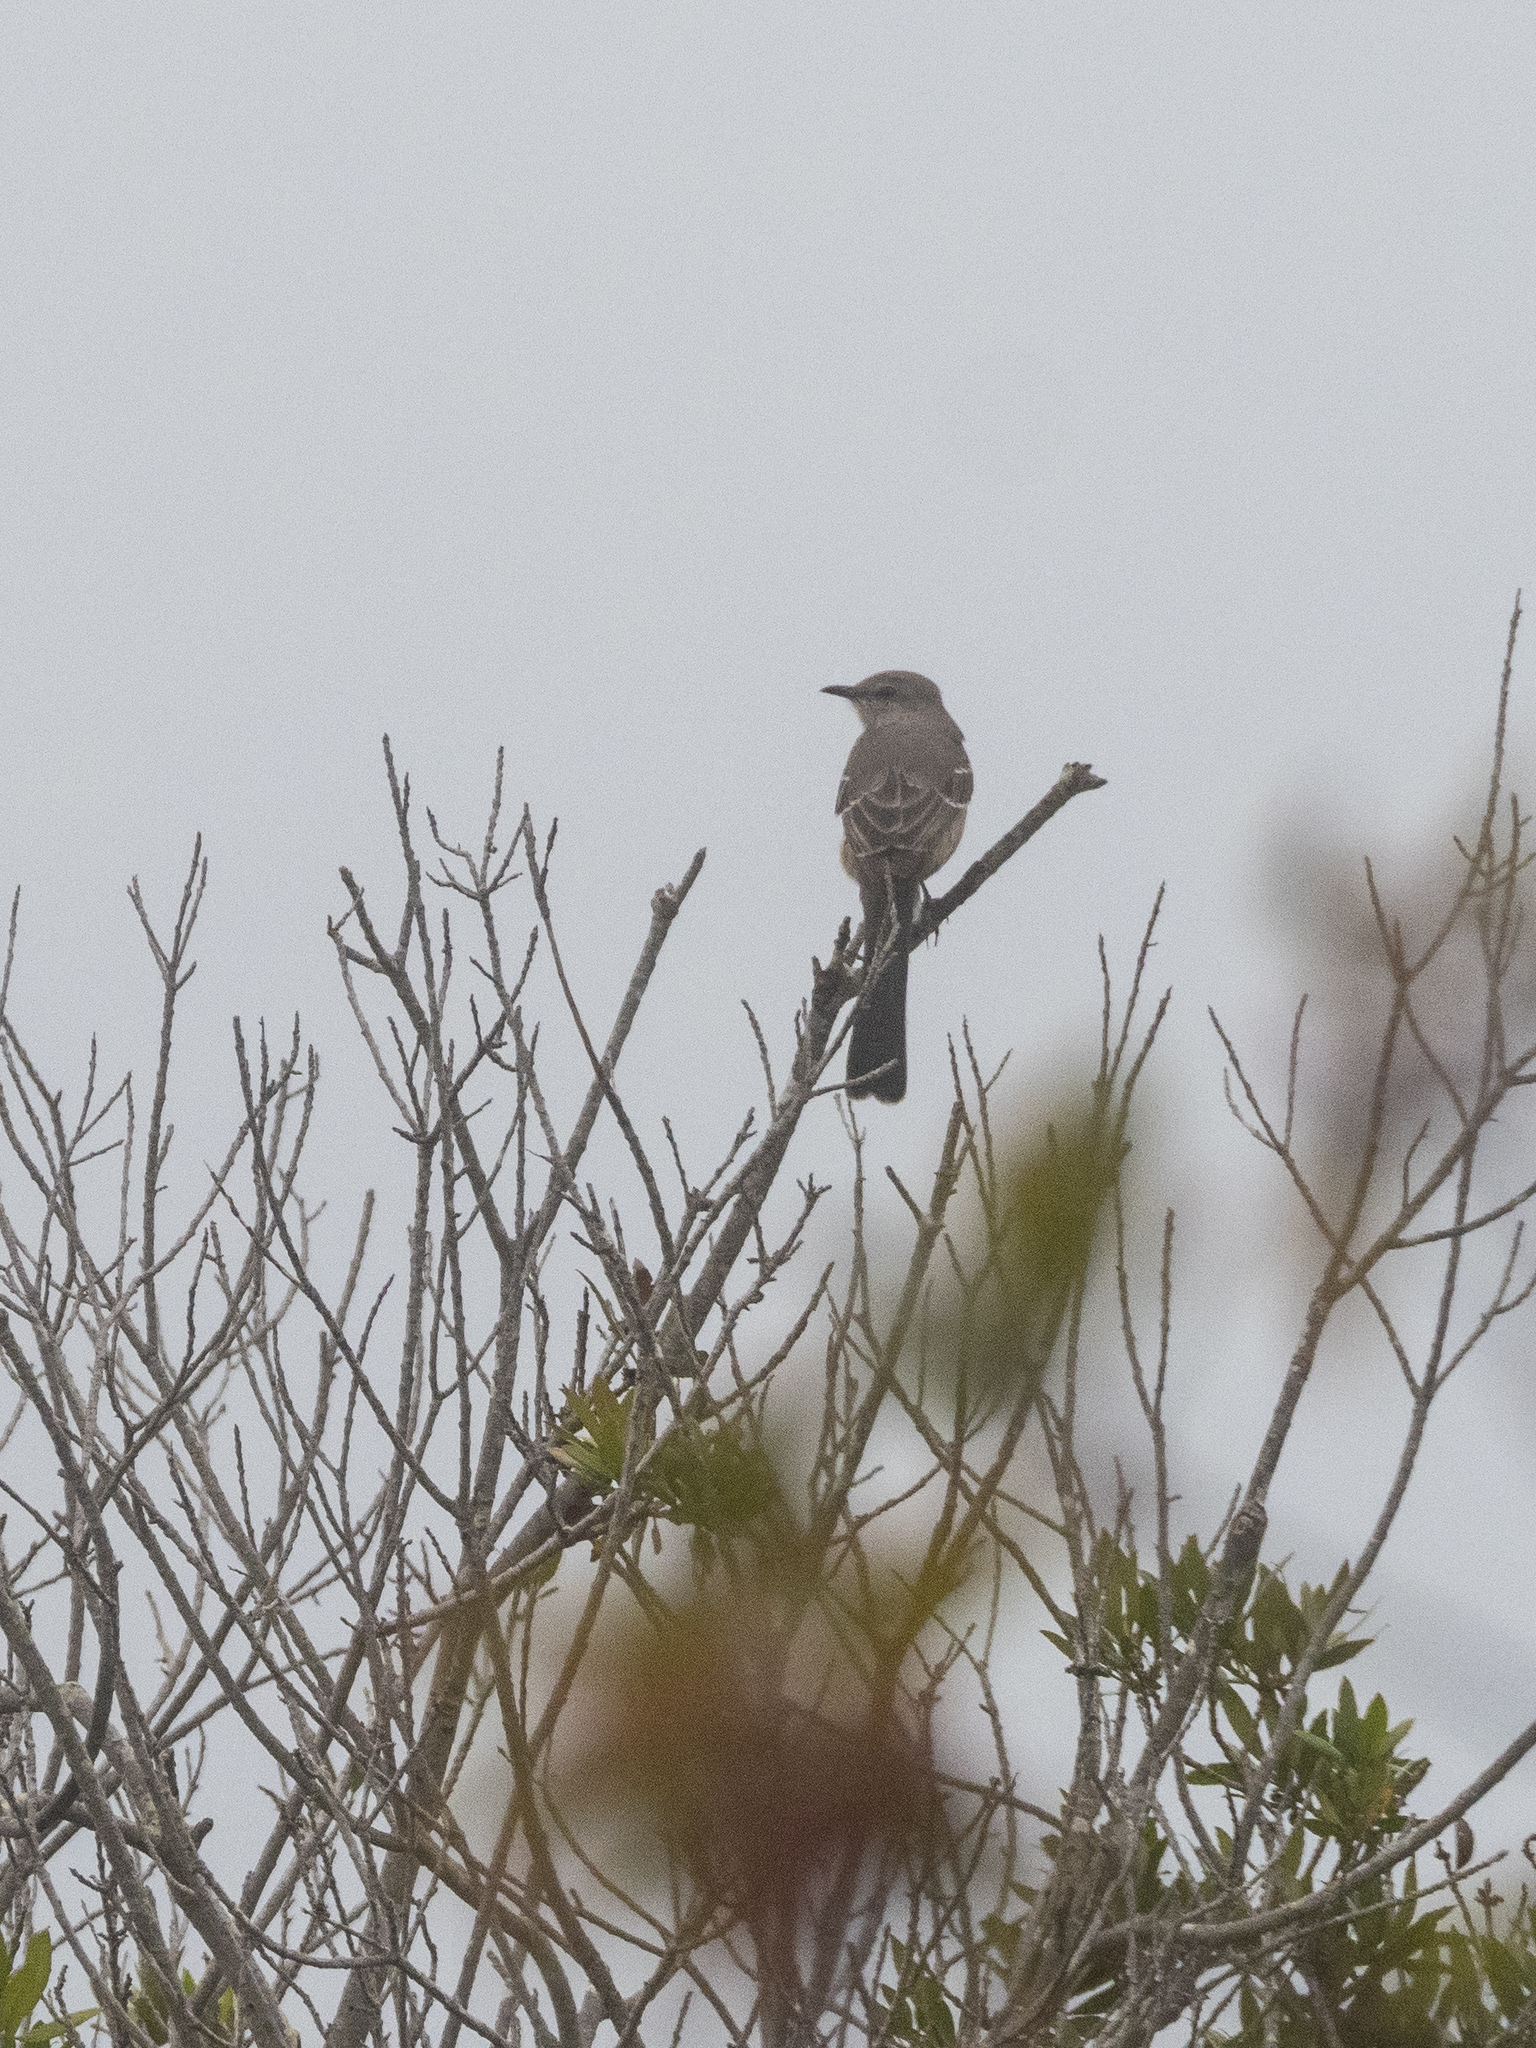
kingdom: Animalia
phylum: Chordata
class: Aves
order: Passeriformes
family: Mimidae
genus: Mimus
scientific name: Mimus polyglottos
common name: Northern mockingbird
